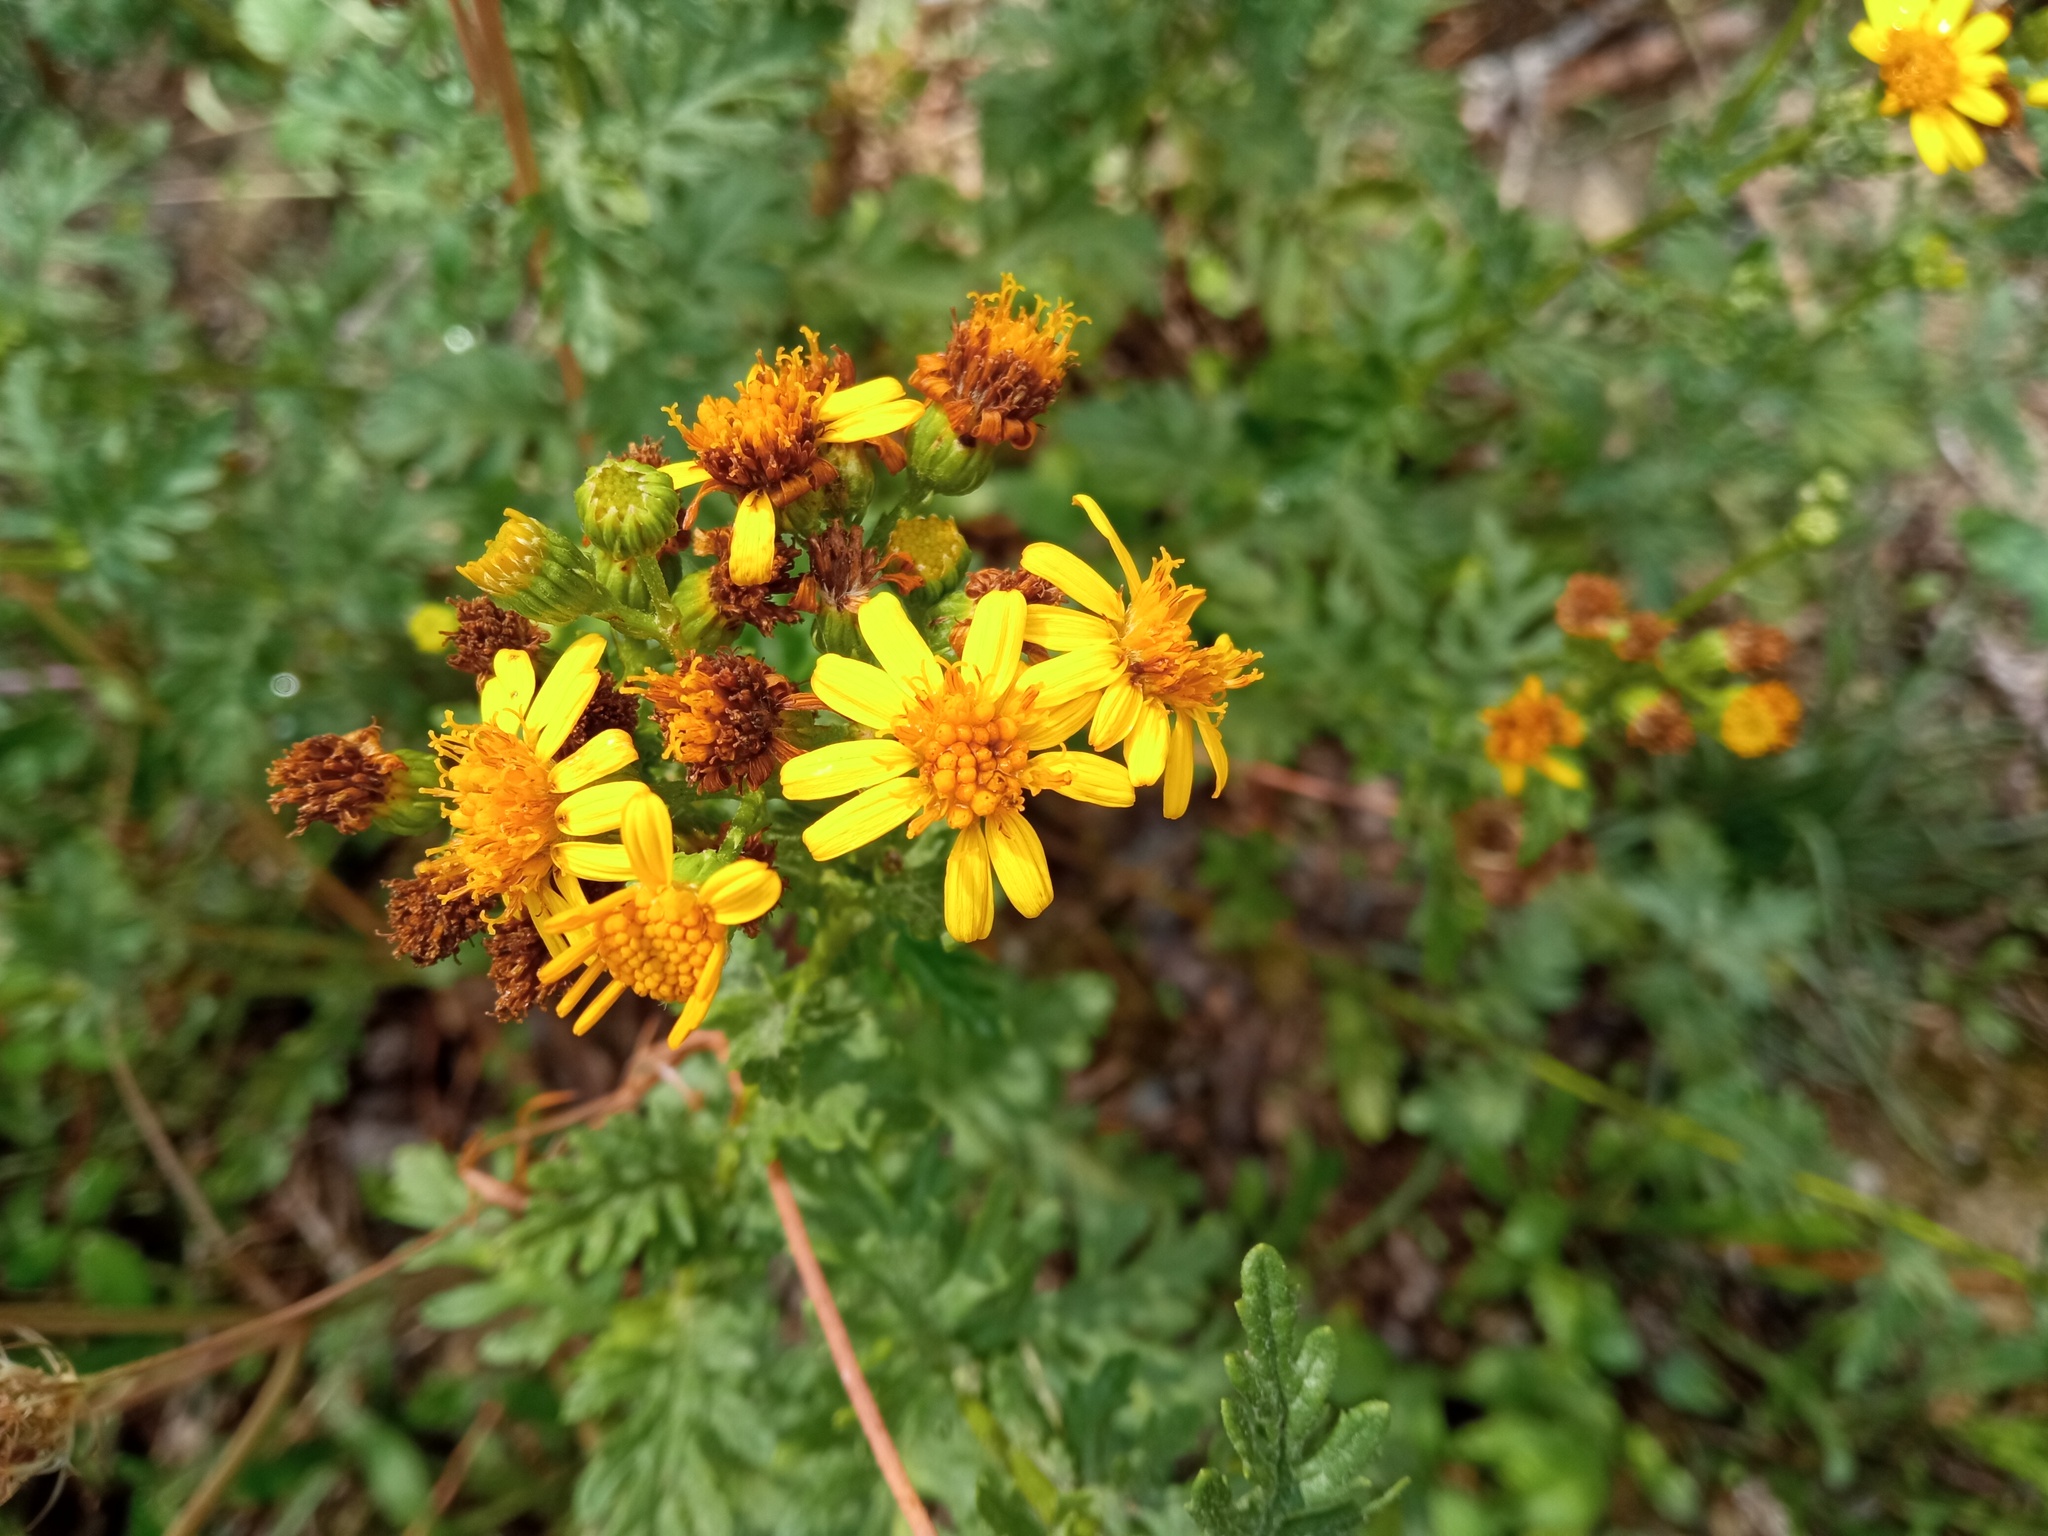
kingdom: Plantae
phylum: Tracheophyta
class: Magnoliopsida
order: Asterales
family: Asteraceae
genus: Jacobaea
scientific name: Jacobaea erucifolia
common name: Hoary ragwort
